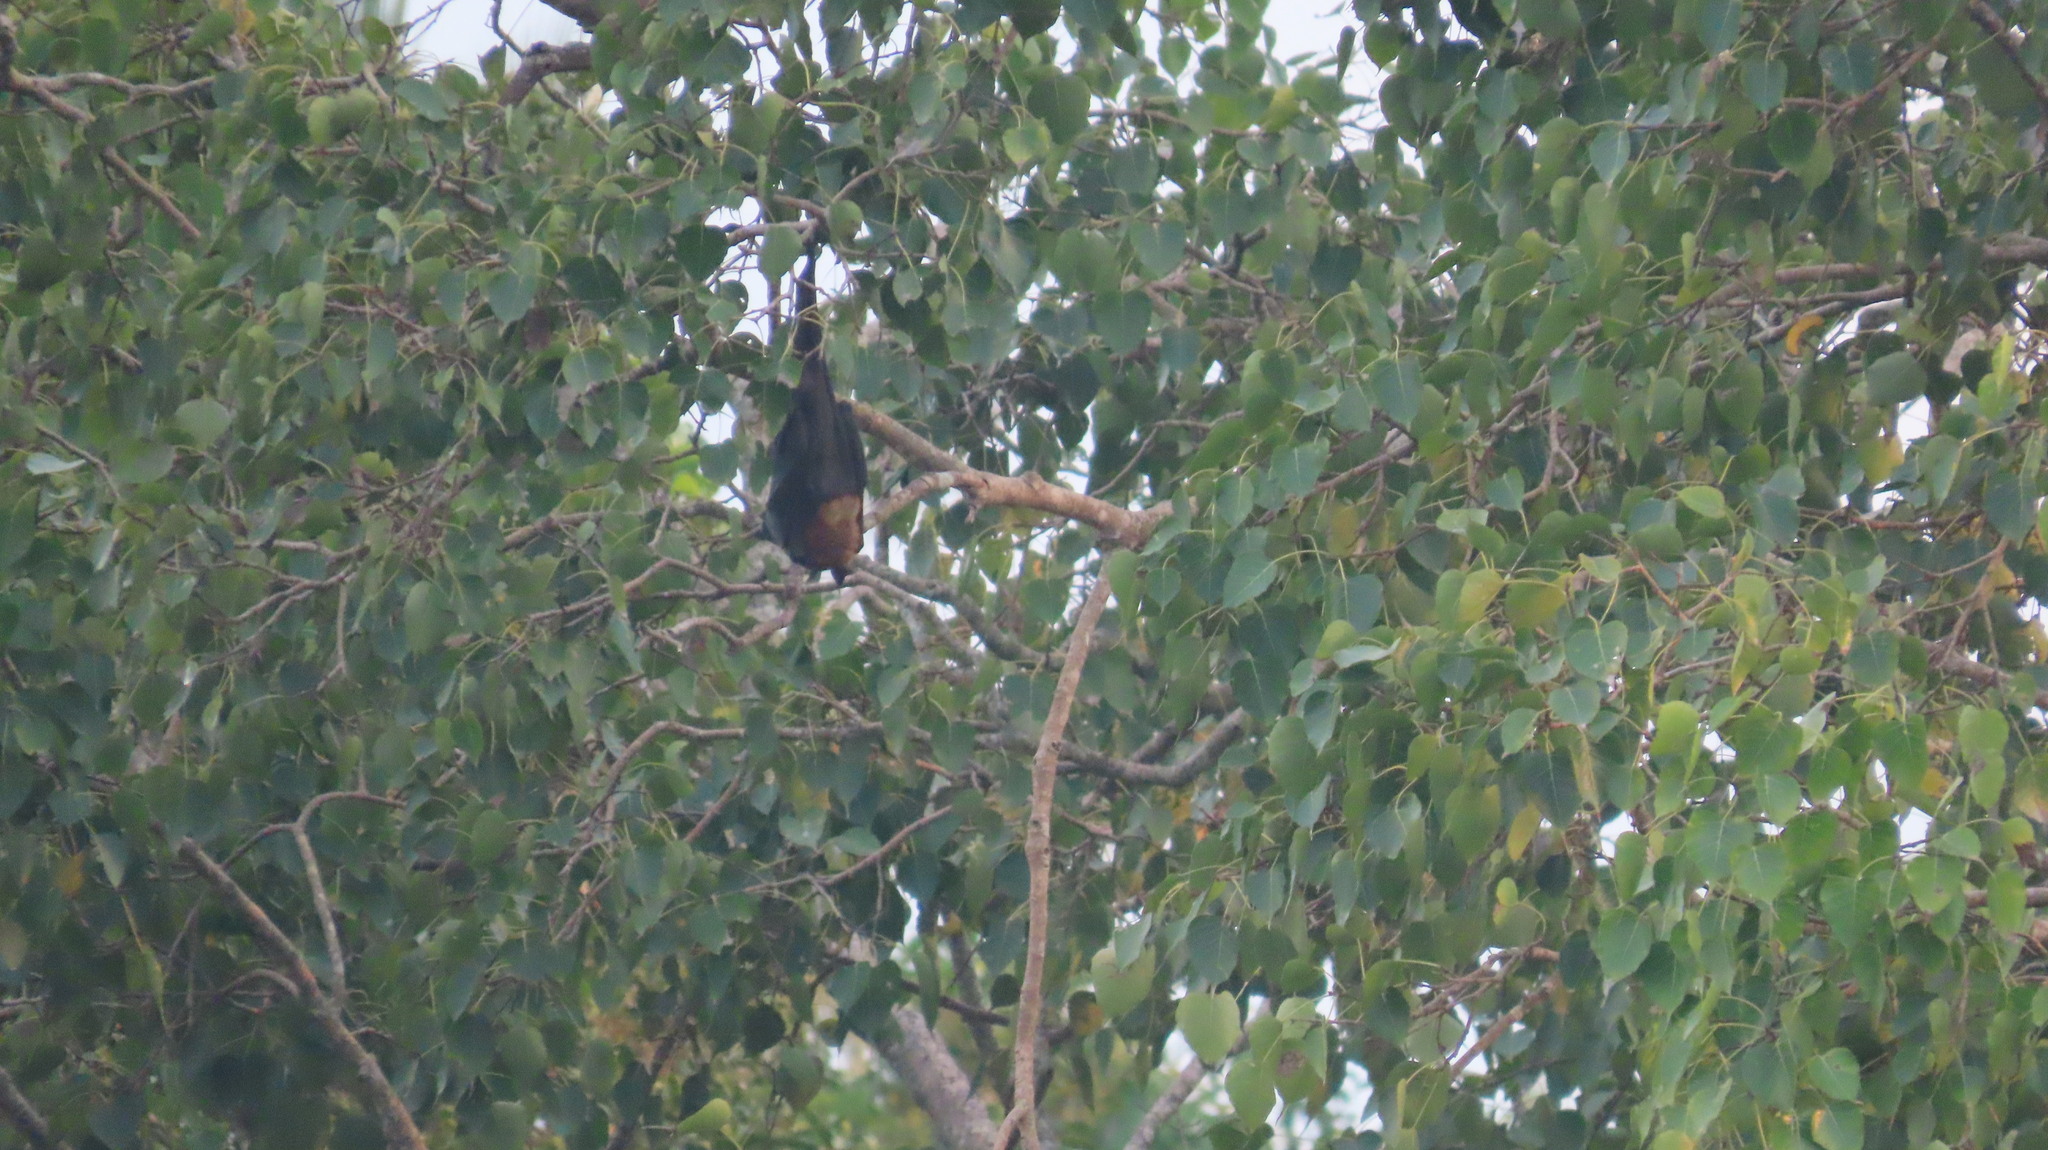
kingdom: Animalia
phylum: Chordata
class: Mammalia
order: Chiroptera
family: Pteropodidae
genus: Pteropus
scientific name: Pteropus vampyrus
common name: Large flying fox
